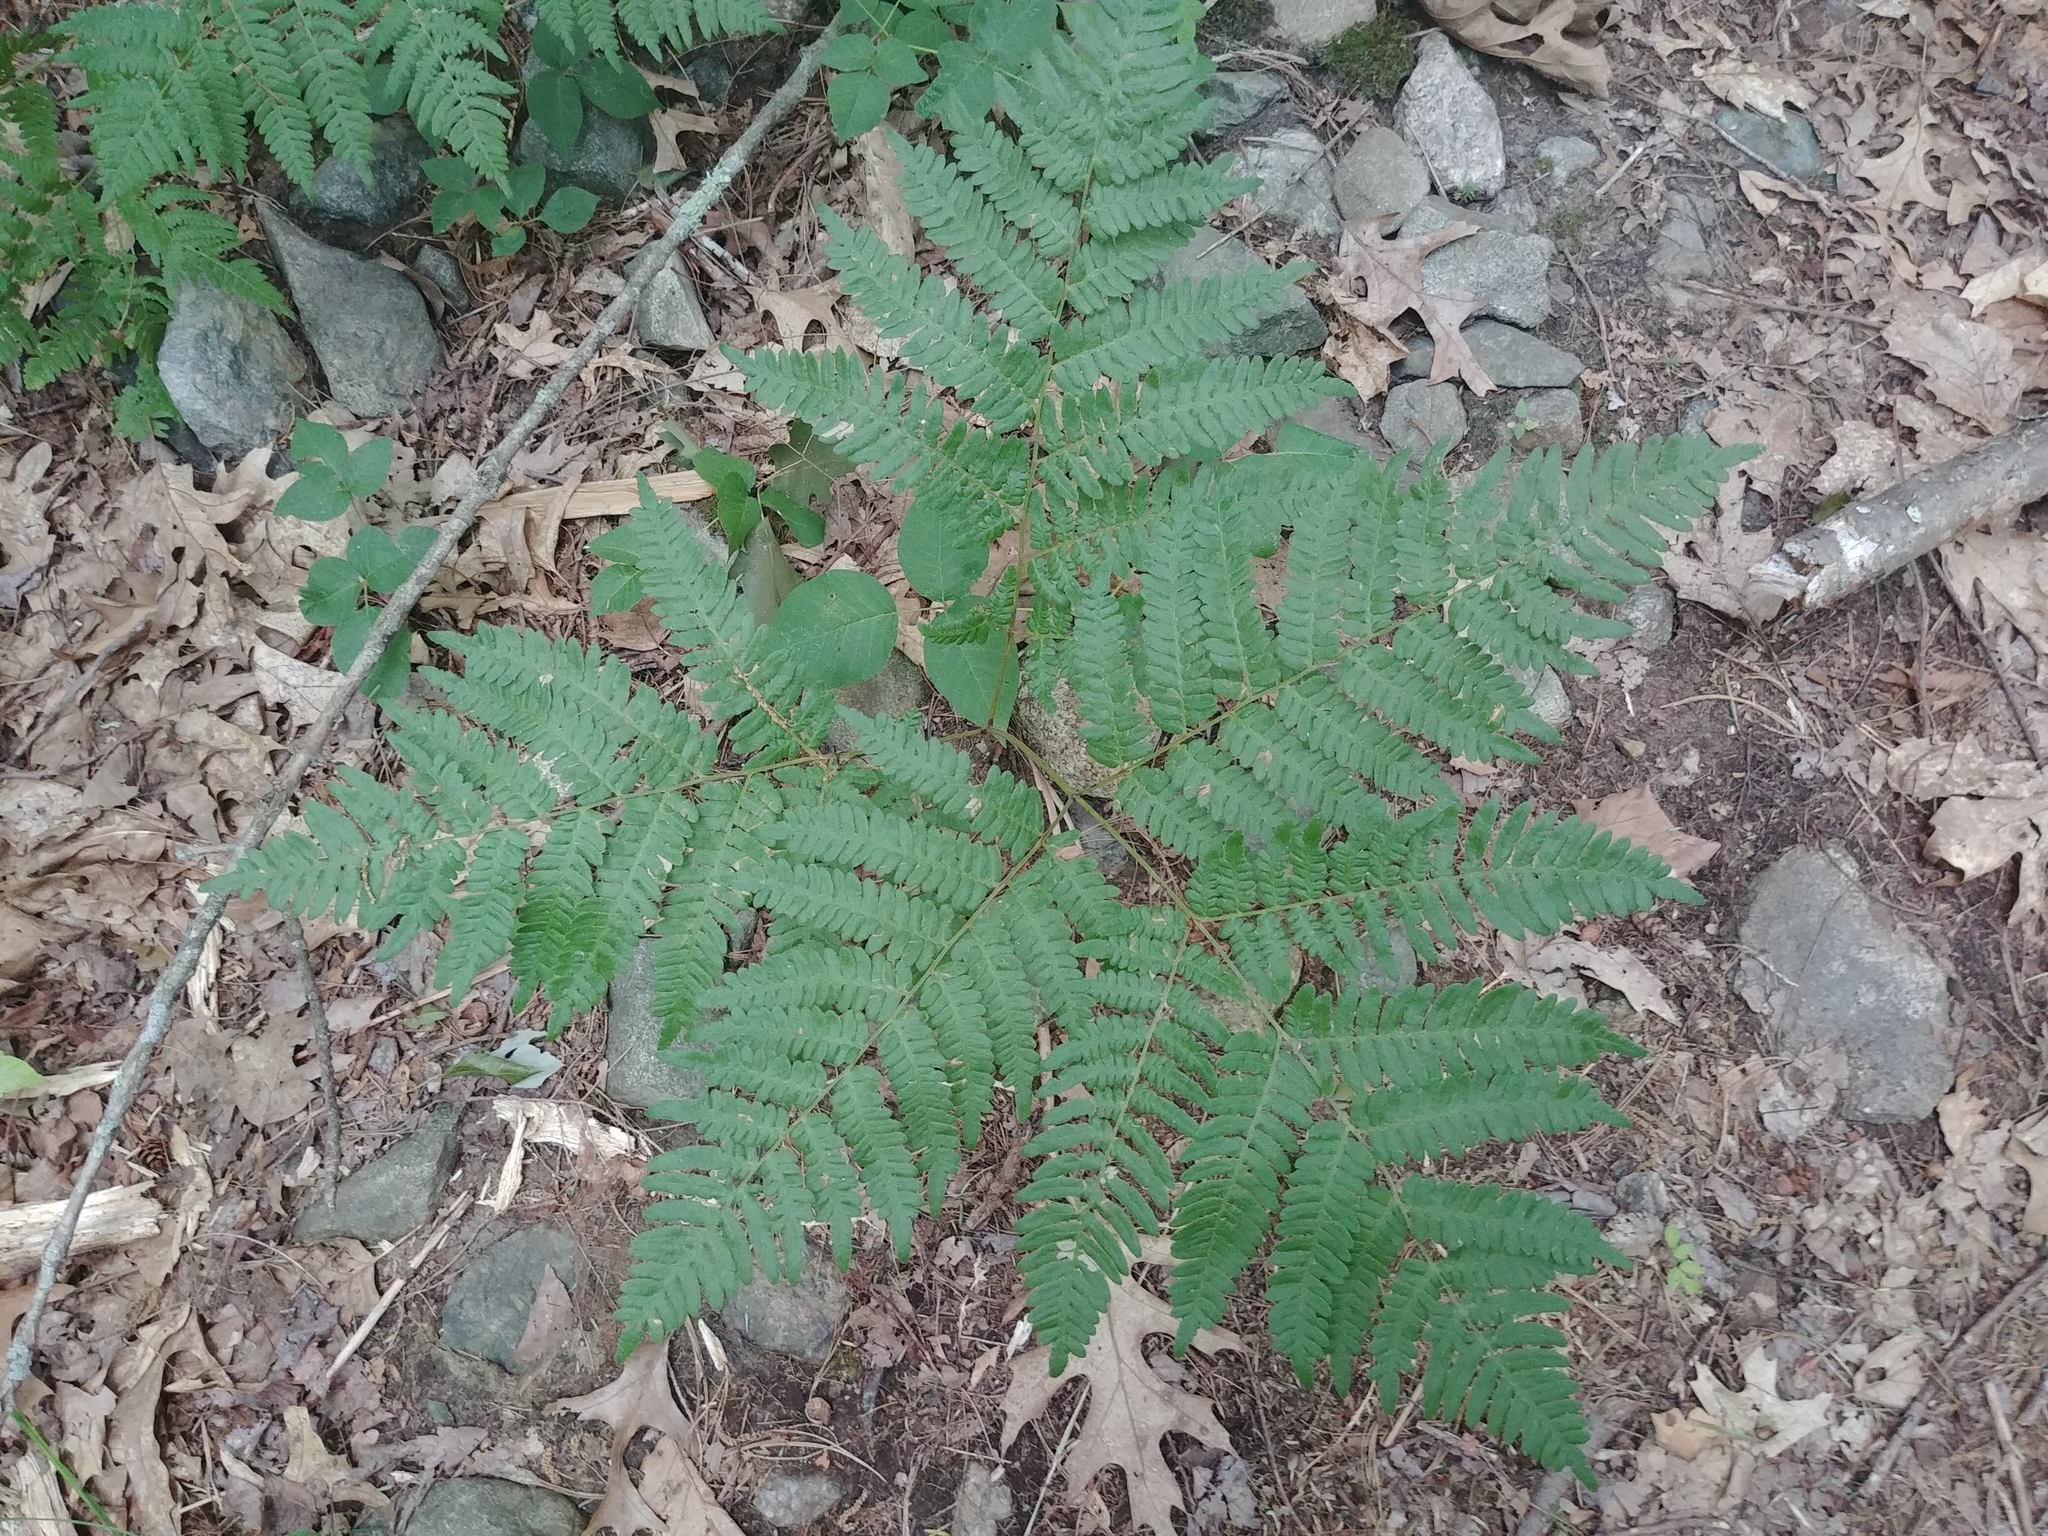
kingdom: Plantae
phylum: Tracheophyta
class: Polypodiopsida
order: Polypodiales
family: Dennstaedtiaceae
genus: Pteridium
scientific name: Pteridium aquilinum
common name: Bracken
